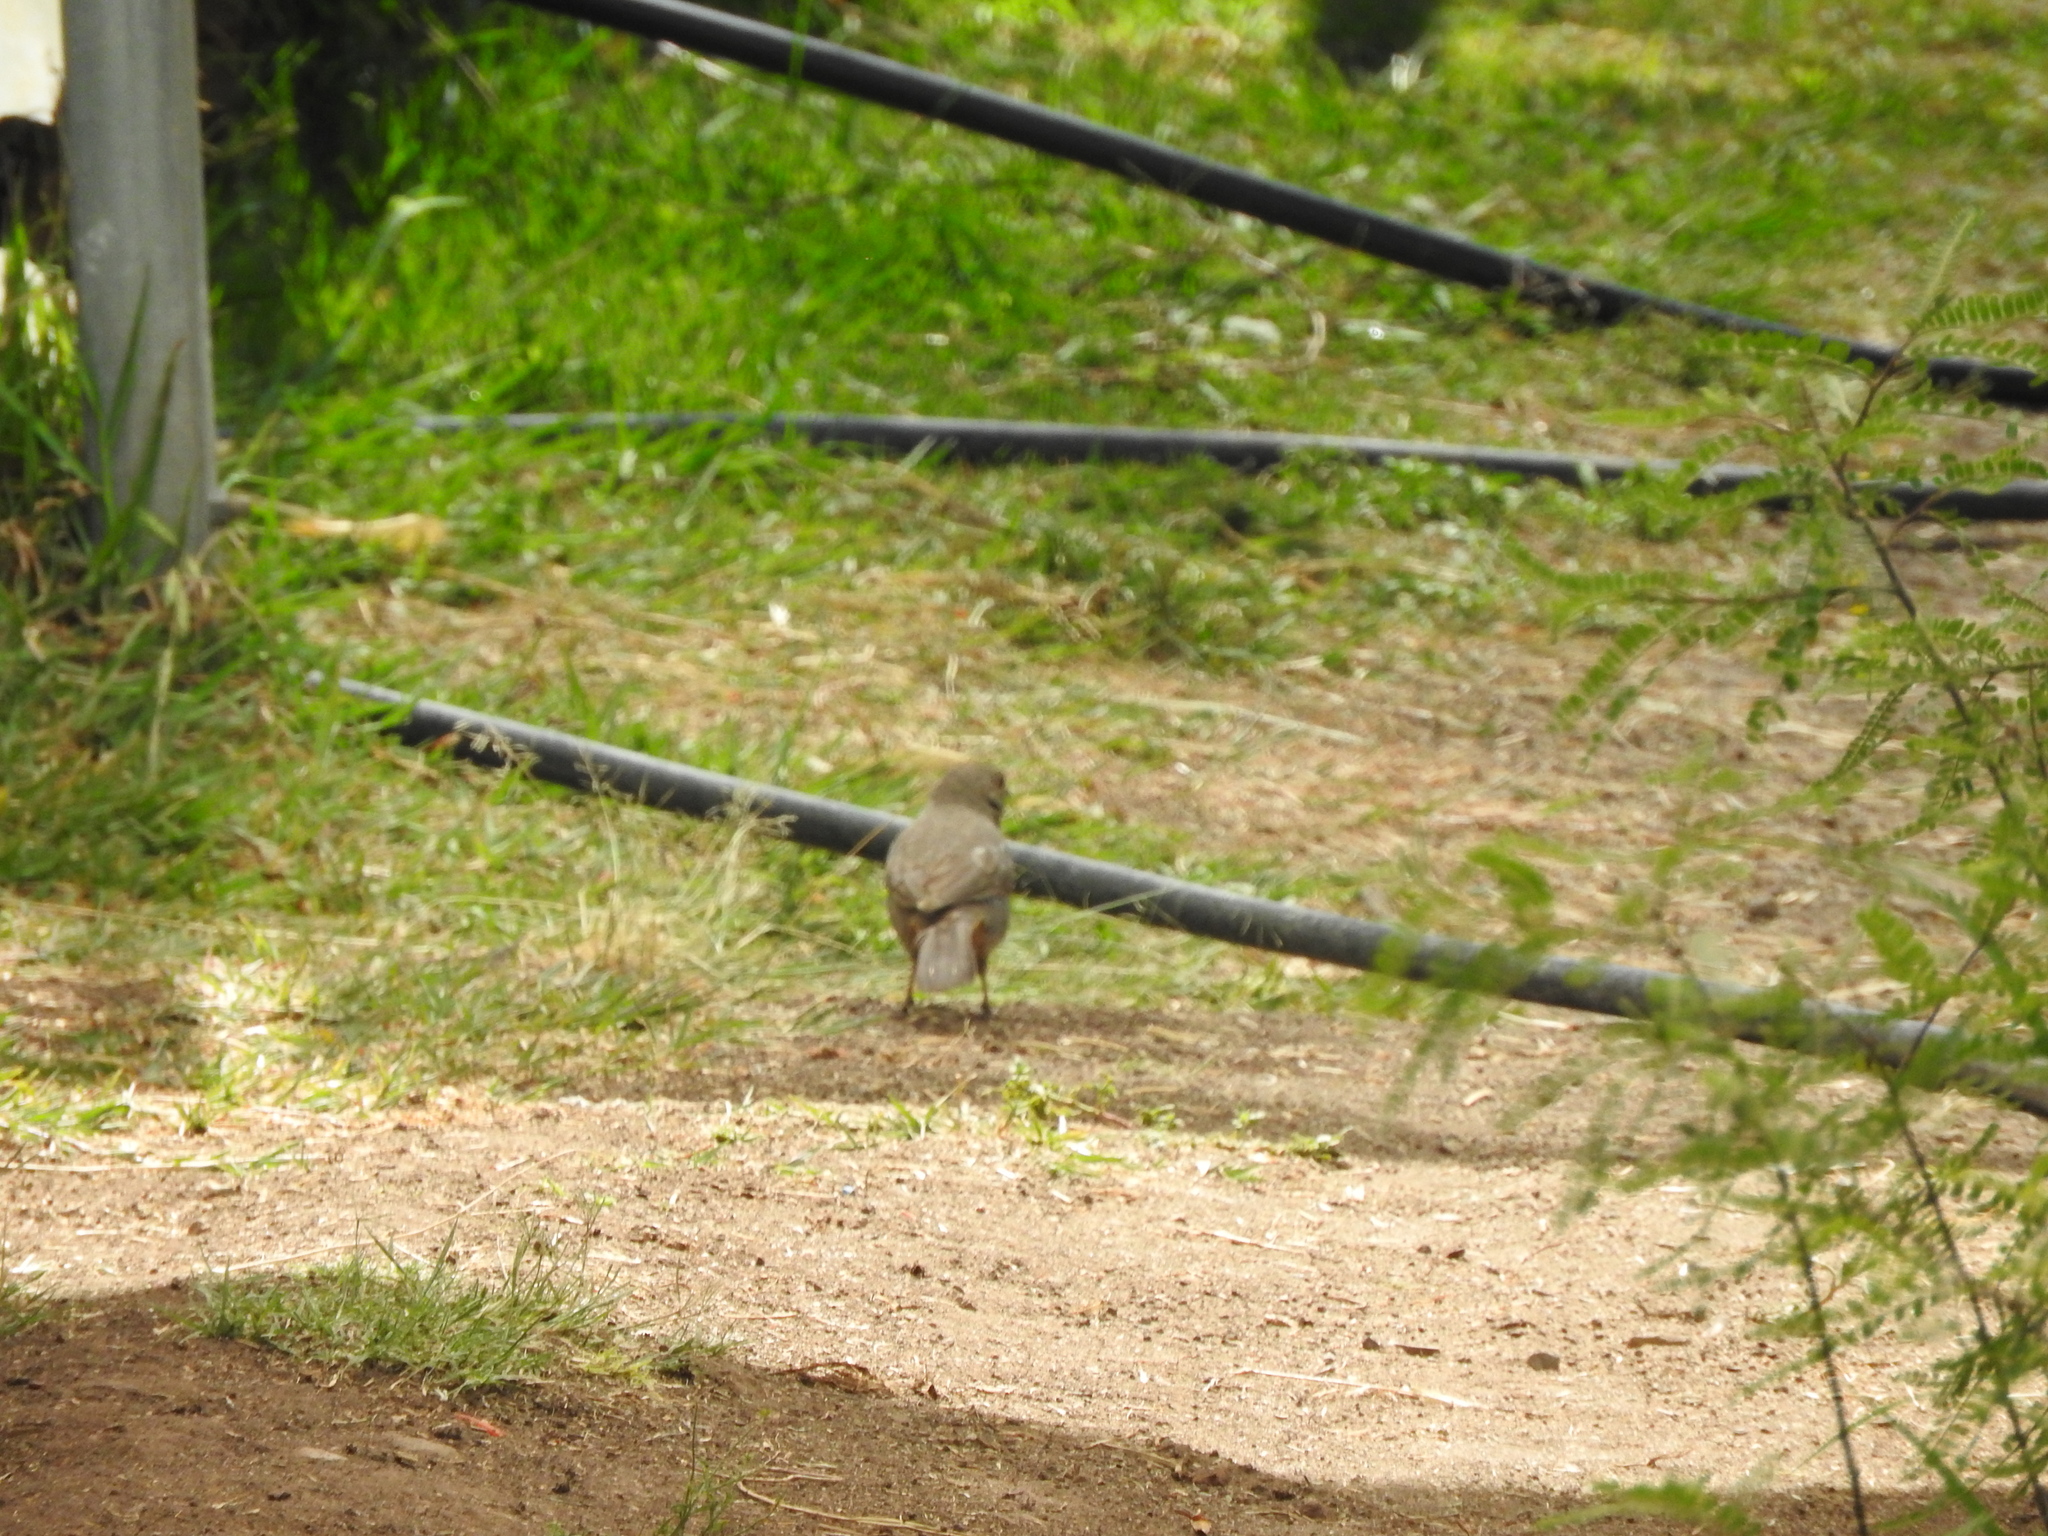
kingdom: Animalia
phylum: Chordata
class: Aves
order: Passeriformes
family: Passerellidae
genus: Melozone
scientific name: Melozone fusca
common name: Canyon towhee
